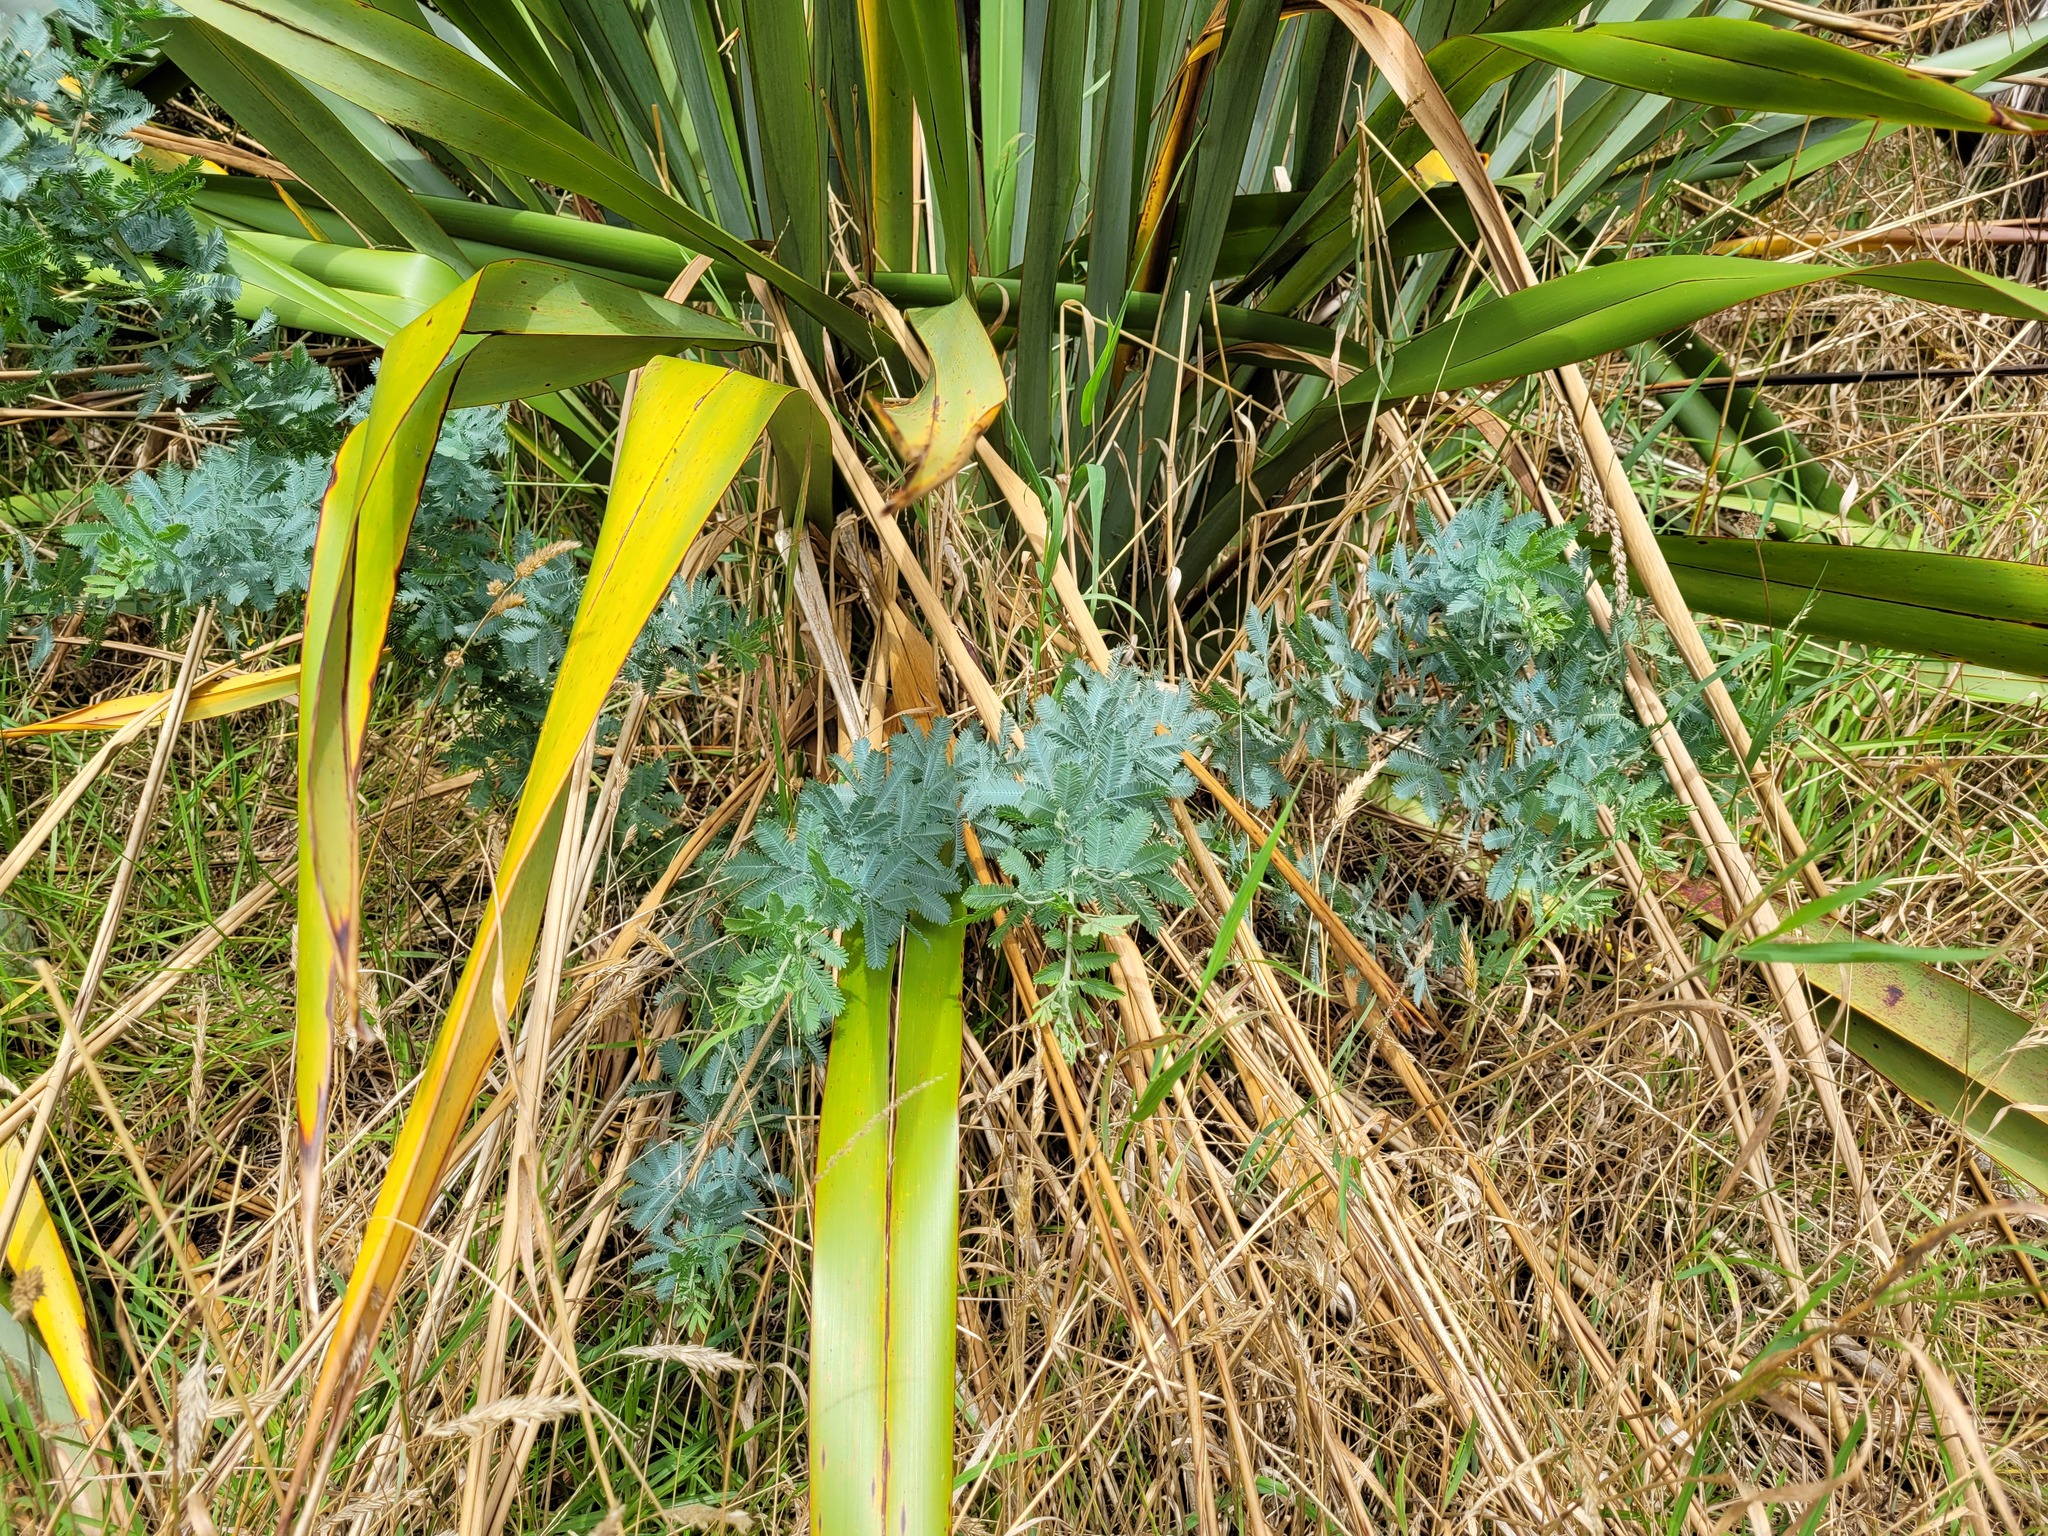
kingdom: Plantae
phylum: Tracheophyta
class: Magnoliopsida
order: Fabales
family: Fabaceae
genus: Acacia
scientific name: Acacia baileyana
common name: Cootamundra wattle
